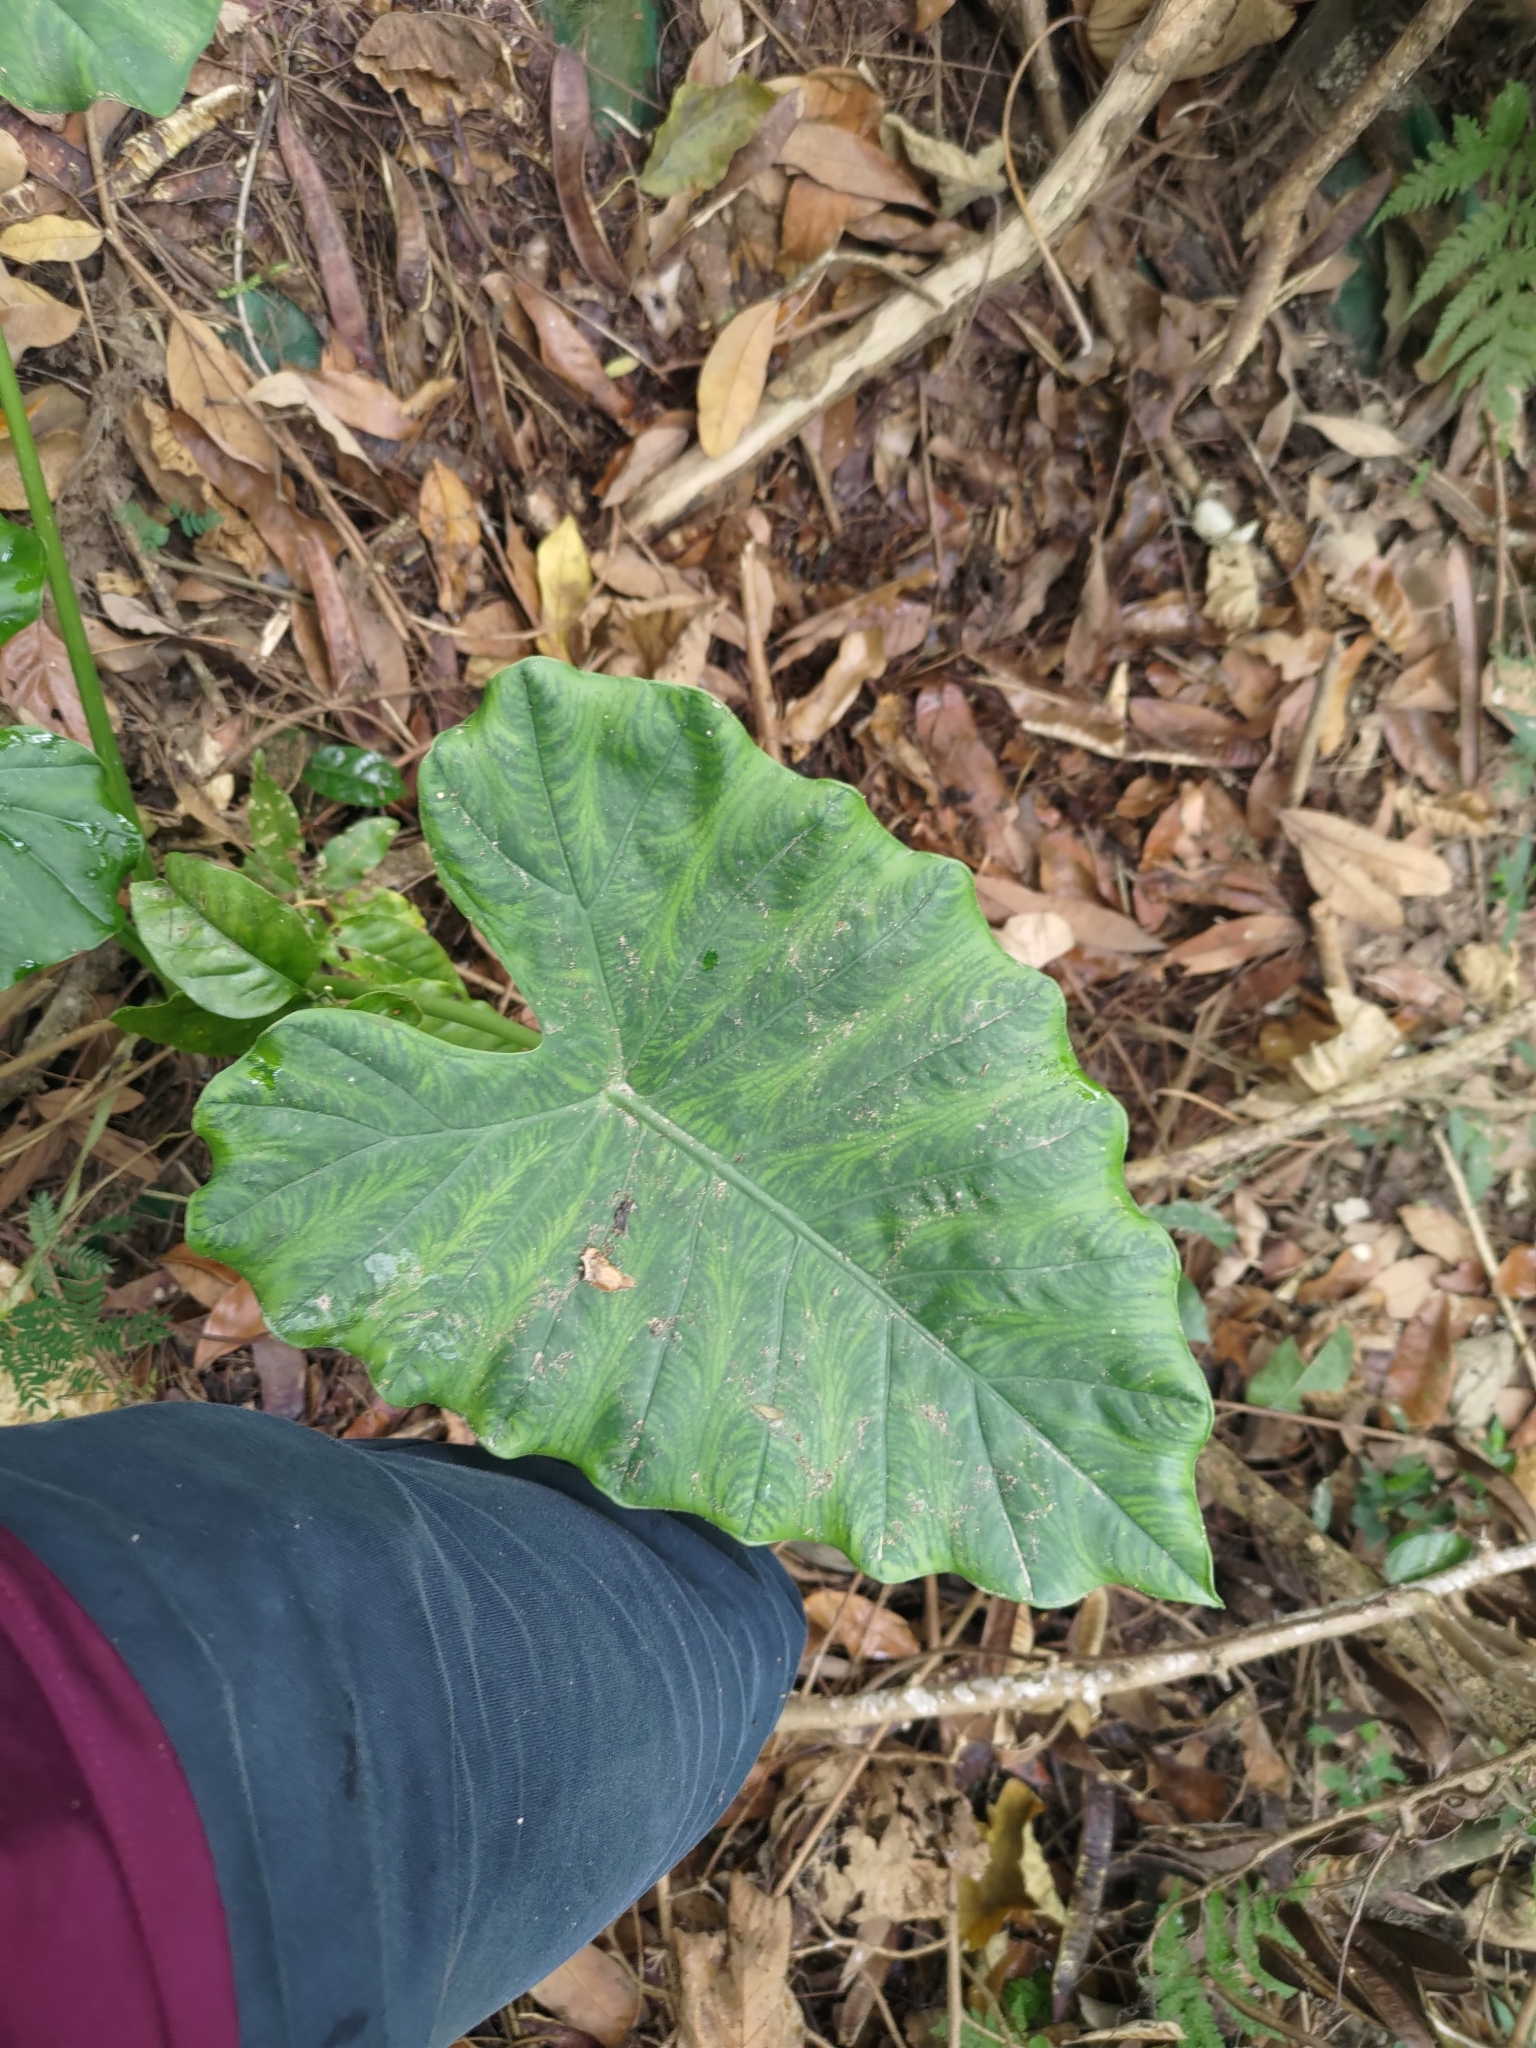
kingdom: Plantae
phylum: Tracheophyta
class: Liliopsida
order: Alismatales
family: Araceae
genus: Alocasia
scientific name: Alocasia odora
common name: Asian taro
